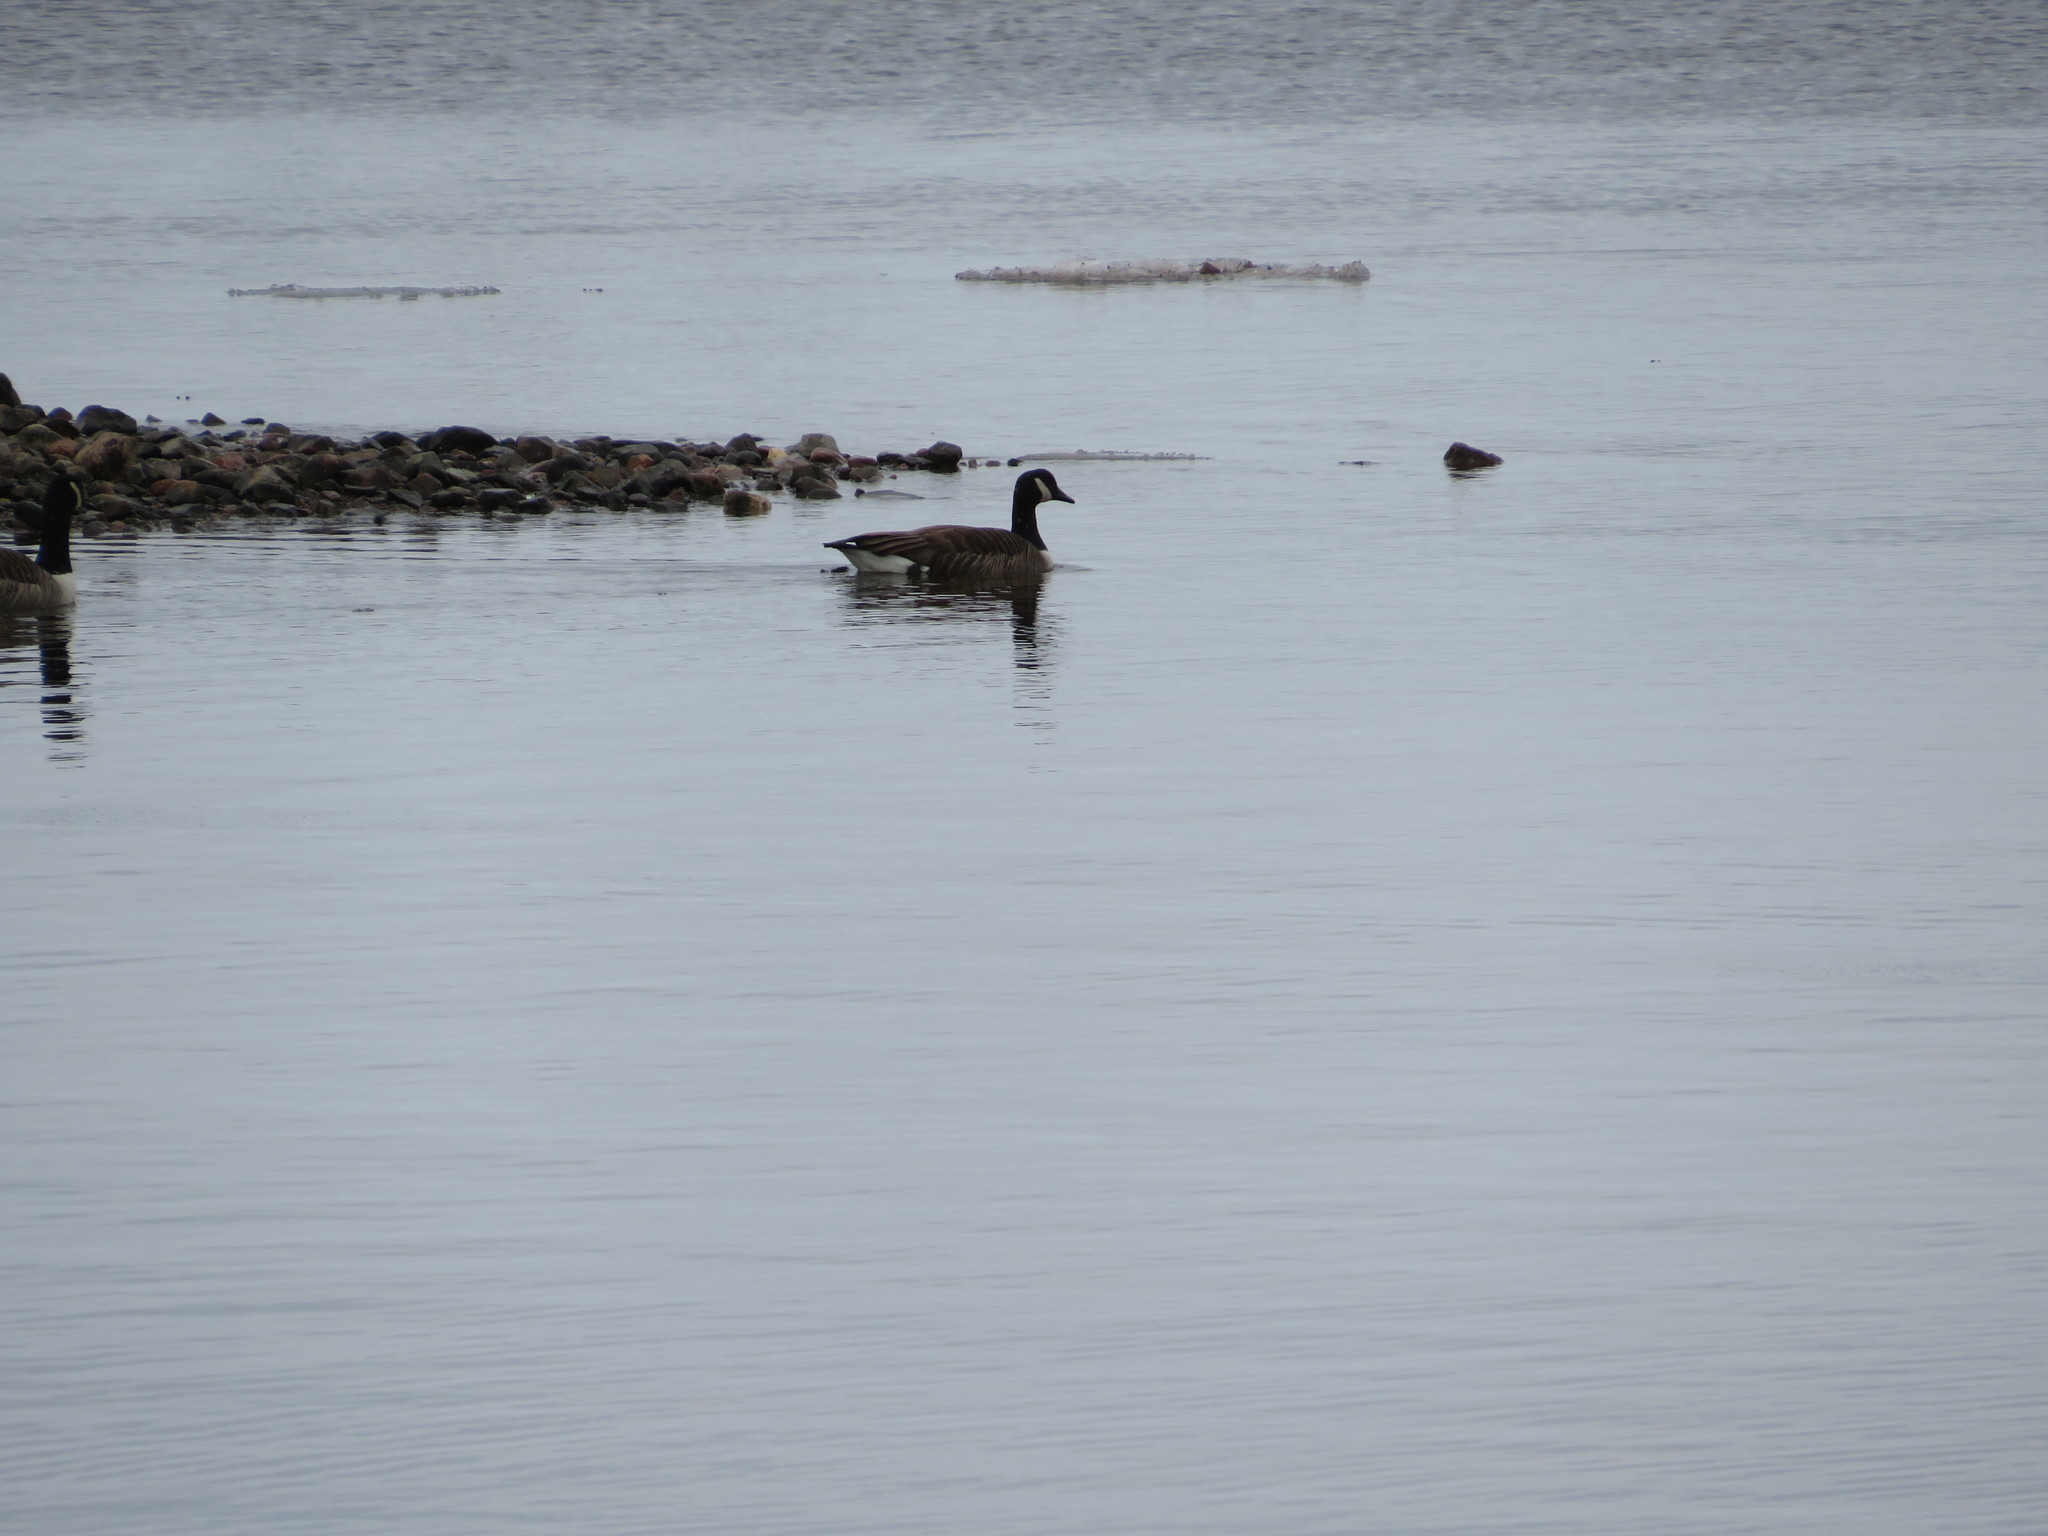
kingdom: Animalia
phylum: Chordata
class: Aves
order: Anseriformes
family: Anatidae
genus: Branta
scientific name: Branta canadensis
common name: Canada goose
